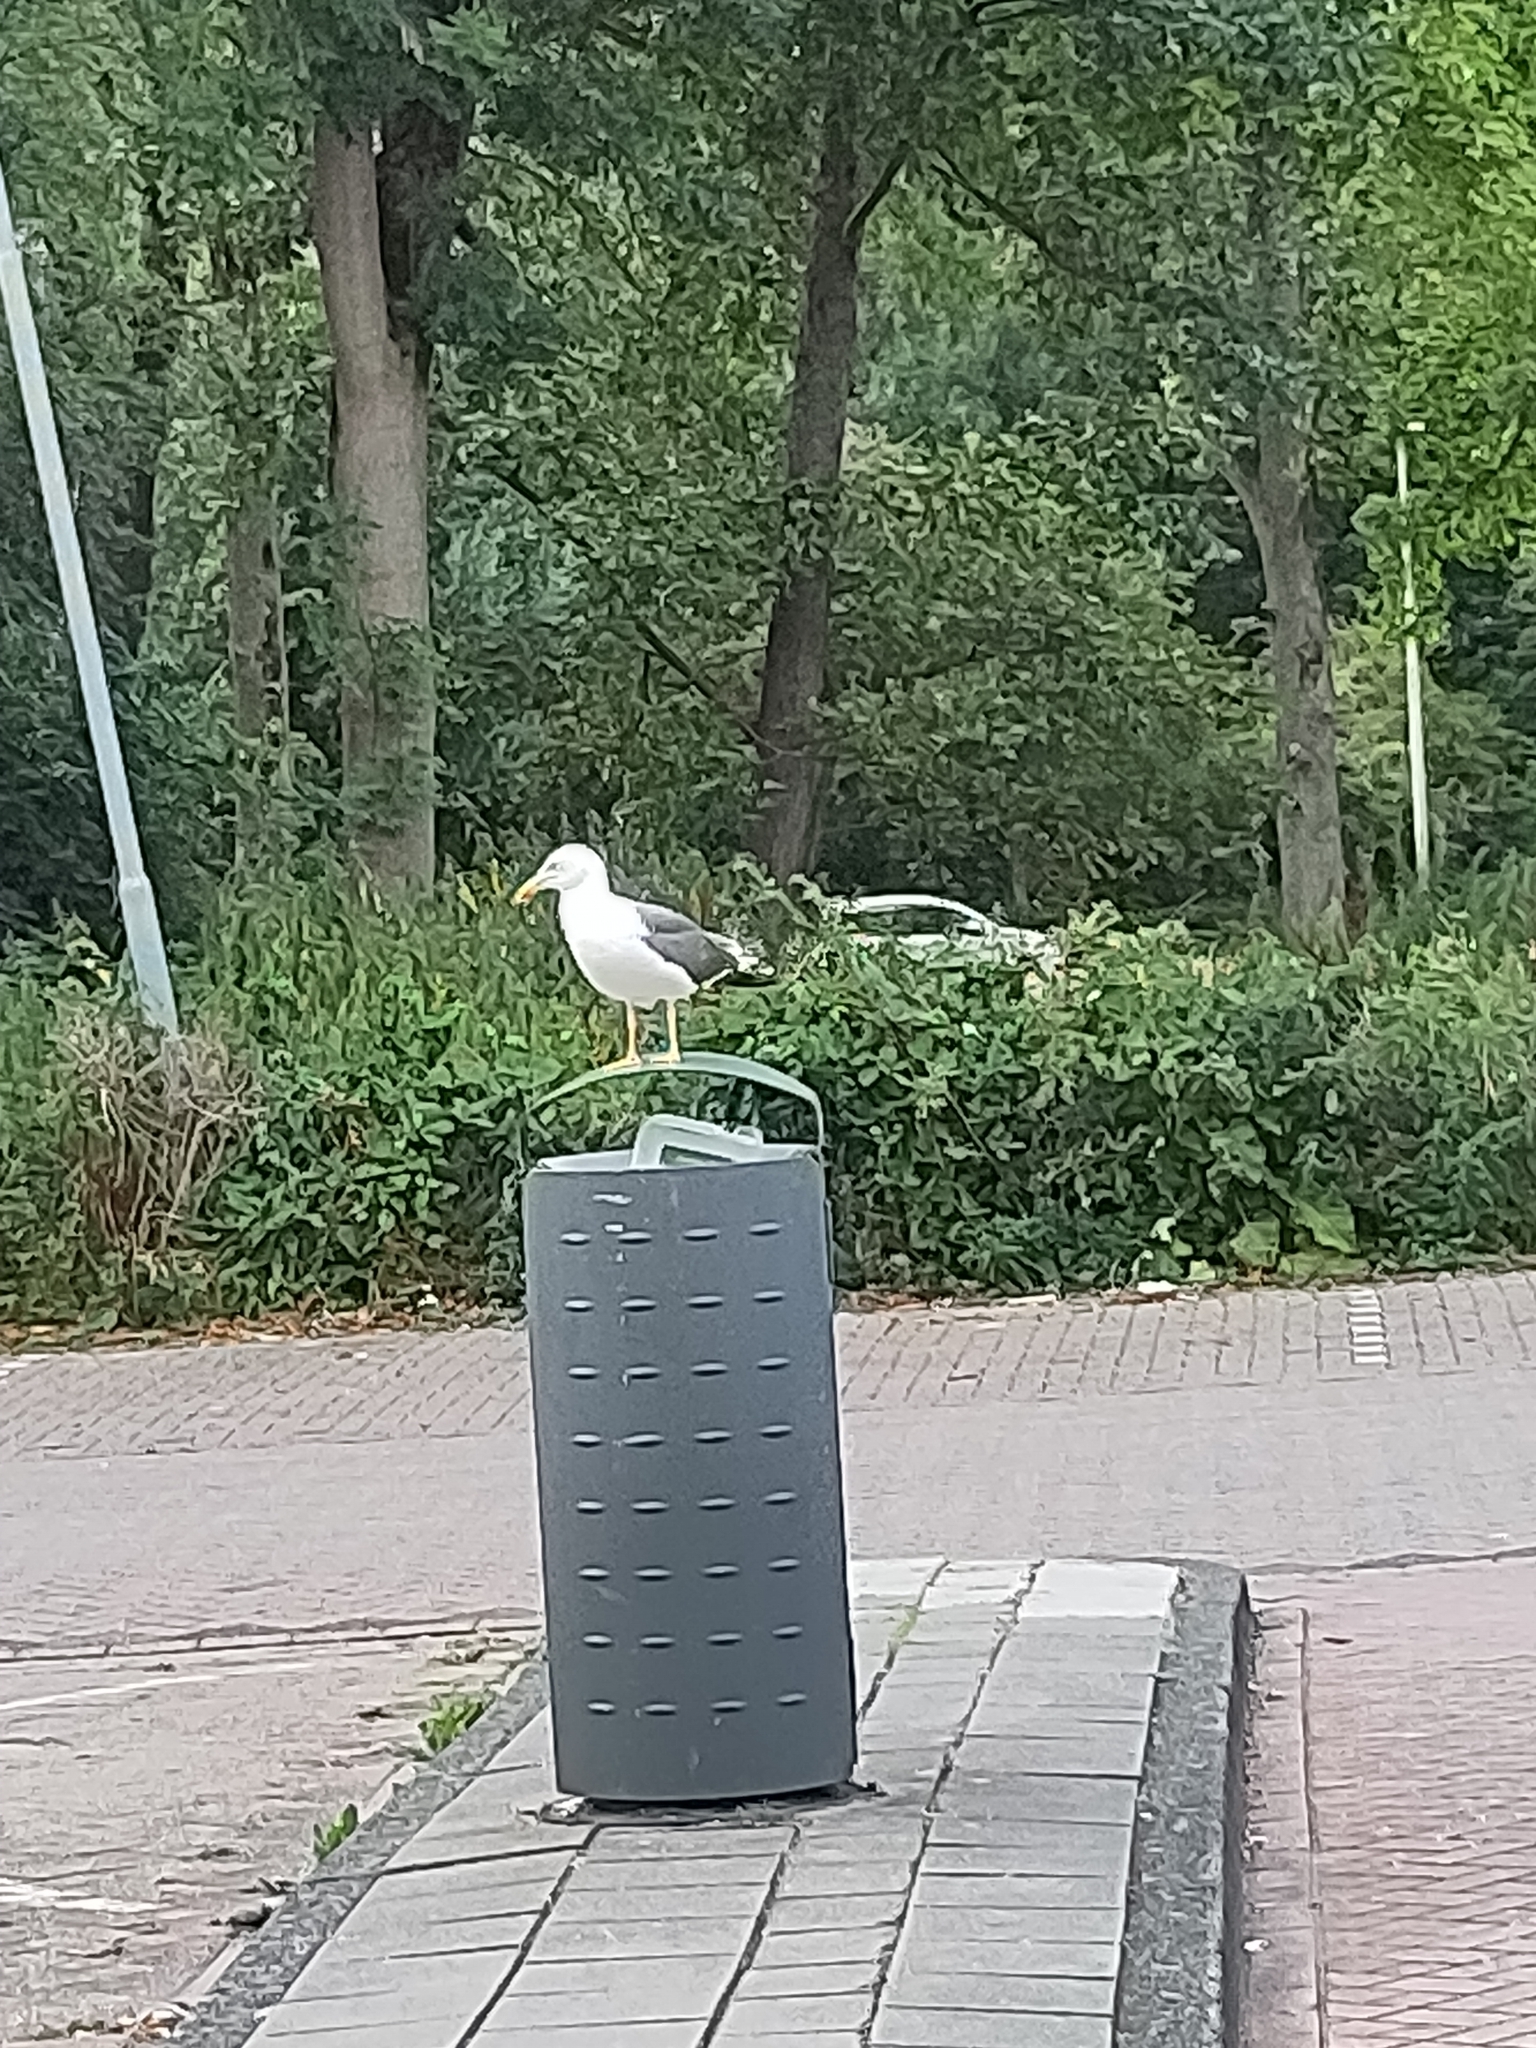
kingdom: Animalia
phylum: Chordata
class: Aves
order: Charadriiformes
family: Laridae
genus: Larus
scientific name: Larus fuscus
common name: Lesser black-backed gull
